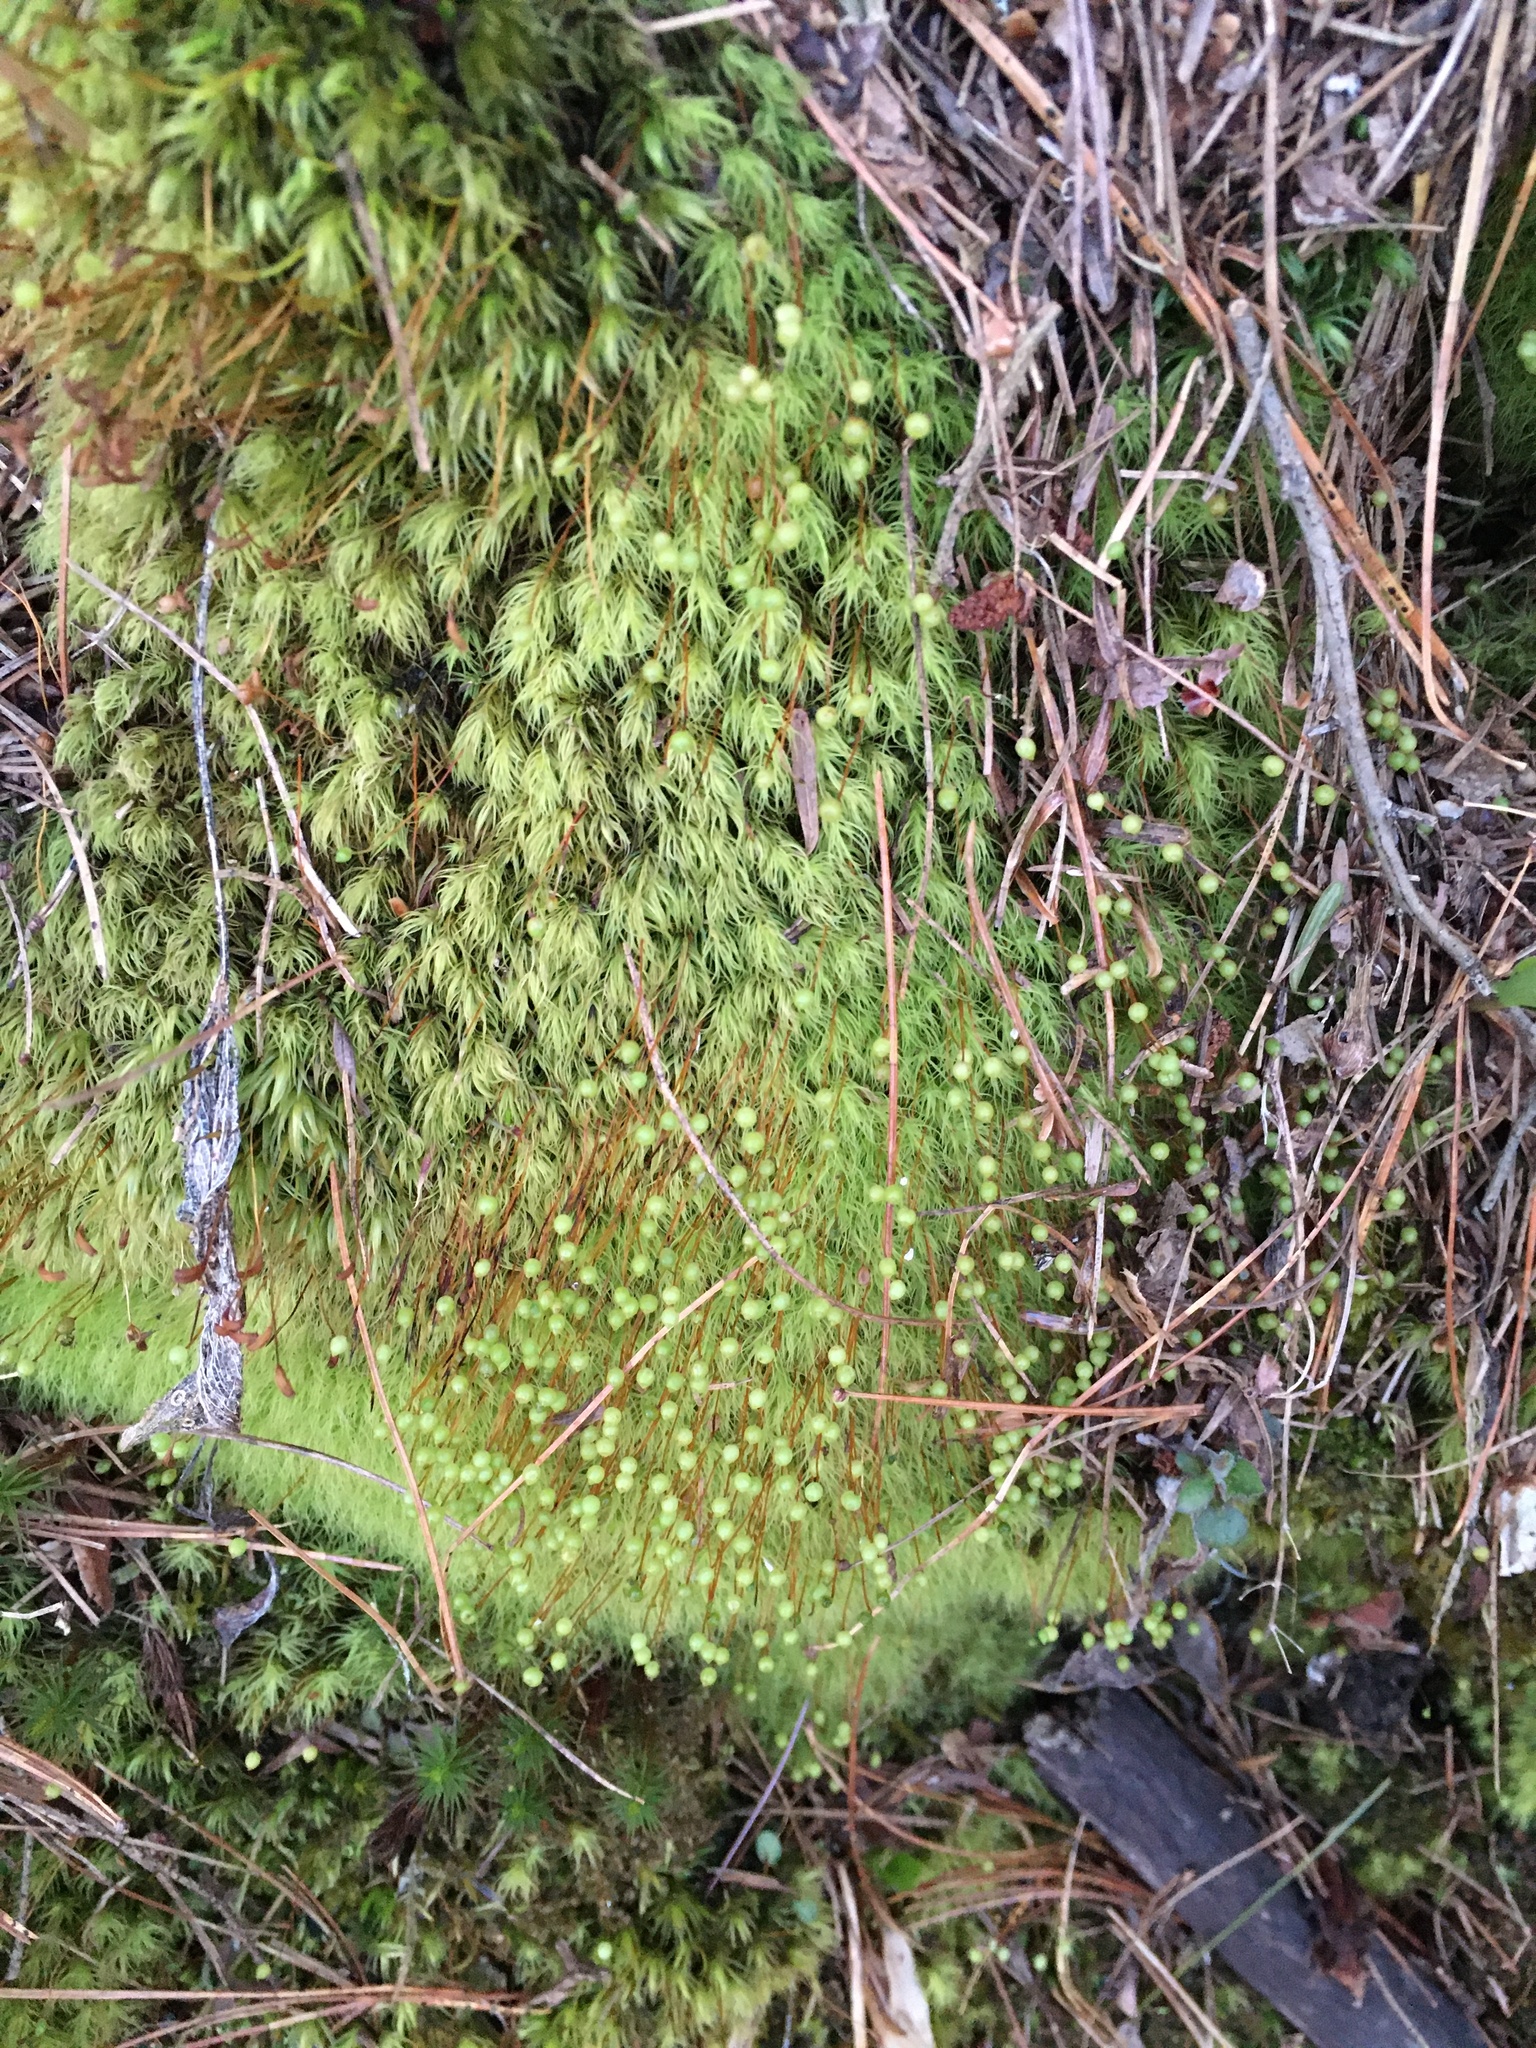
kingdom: Plantae
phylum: Bryophyta
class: Bryopsida
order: Bartramiales
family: Bartramiaceae
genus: Bartramia
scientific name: Bartramia ithyphylla
